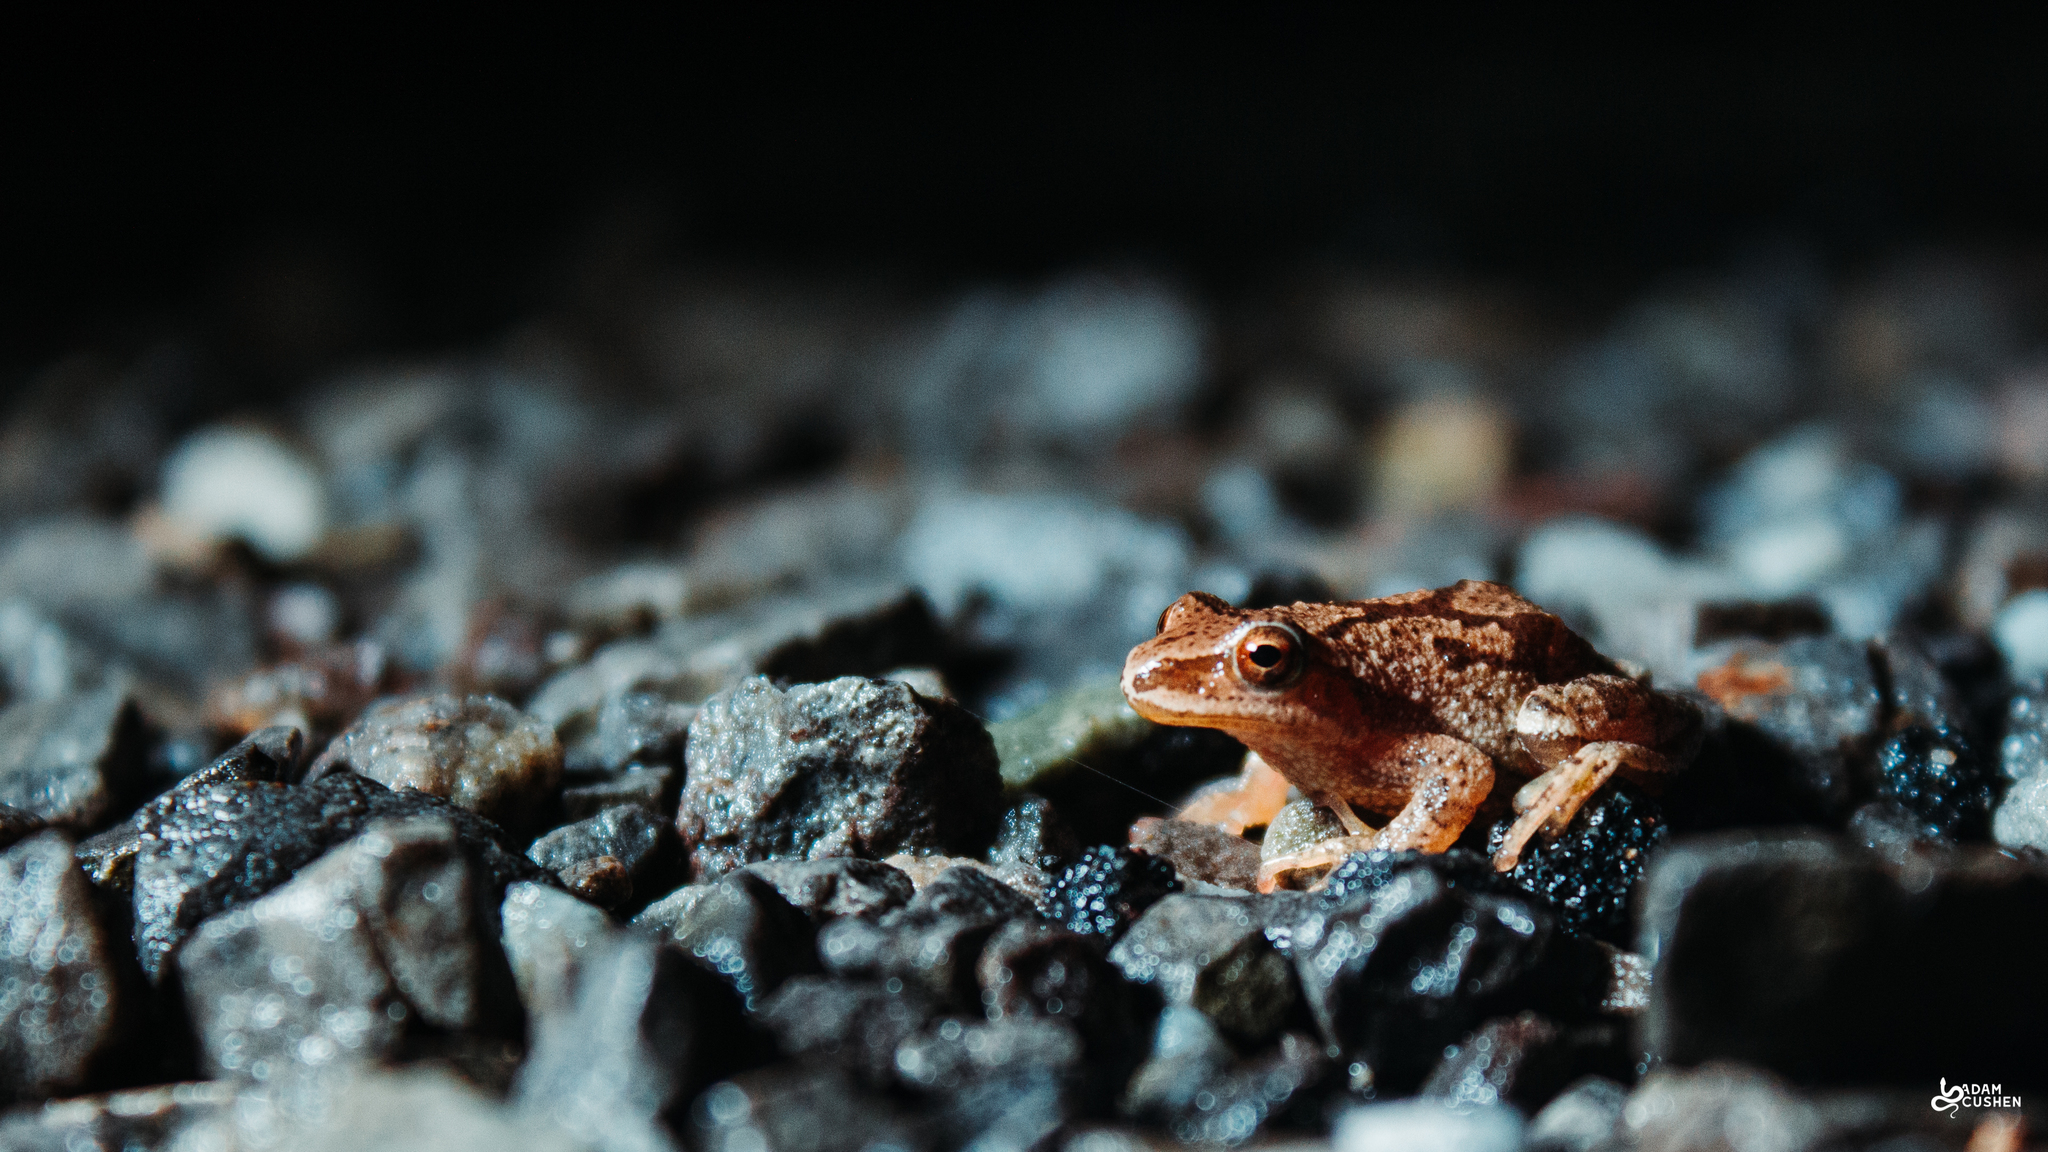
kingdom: Animalia
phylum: Chordata
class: Amphibia
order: Anura
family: Hylidae
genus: Pseudacris
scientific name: Pseudacris crucifer
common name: Spring peeper
